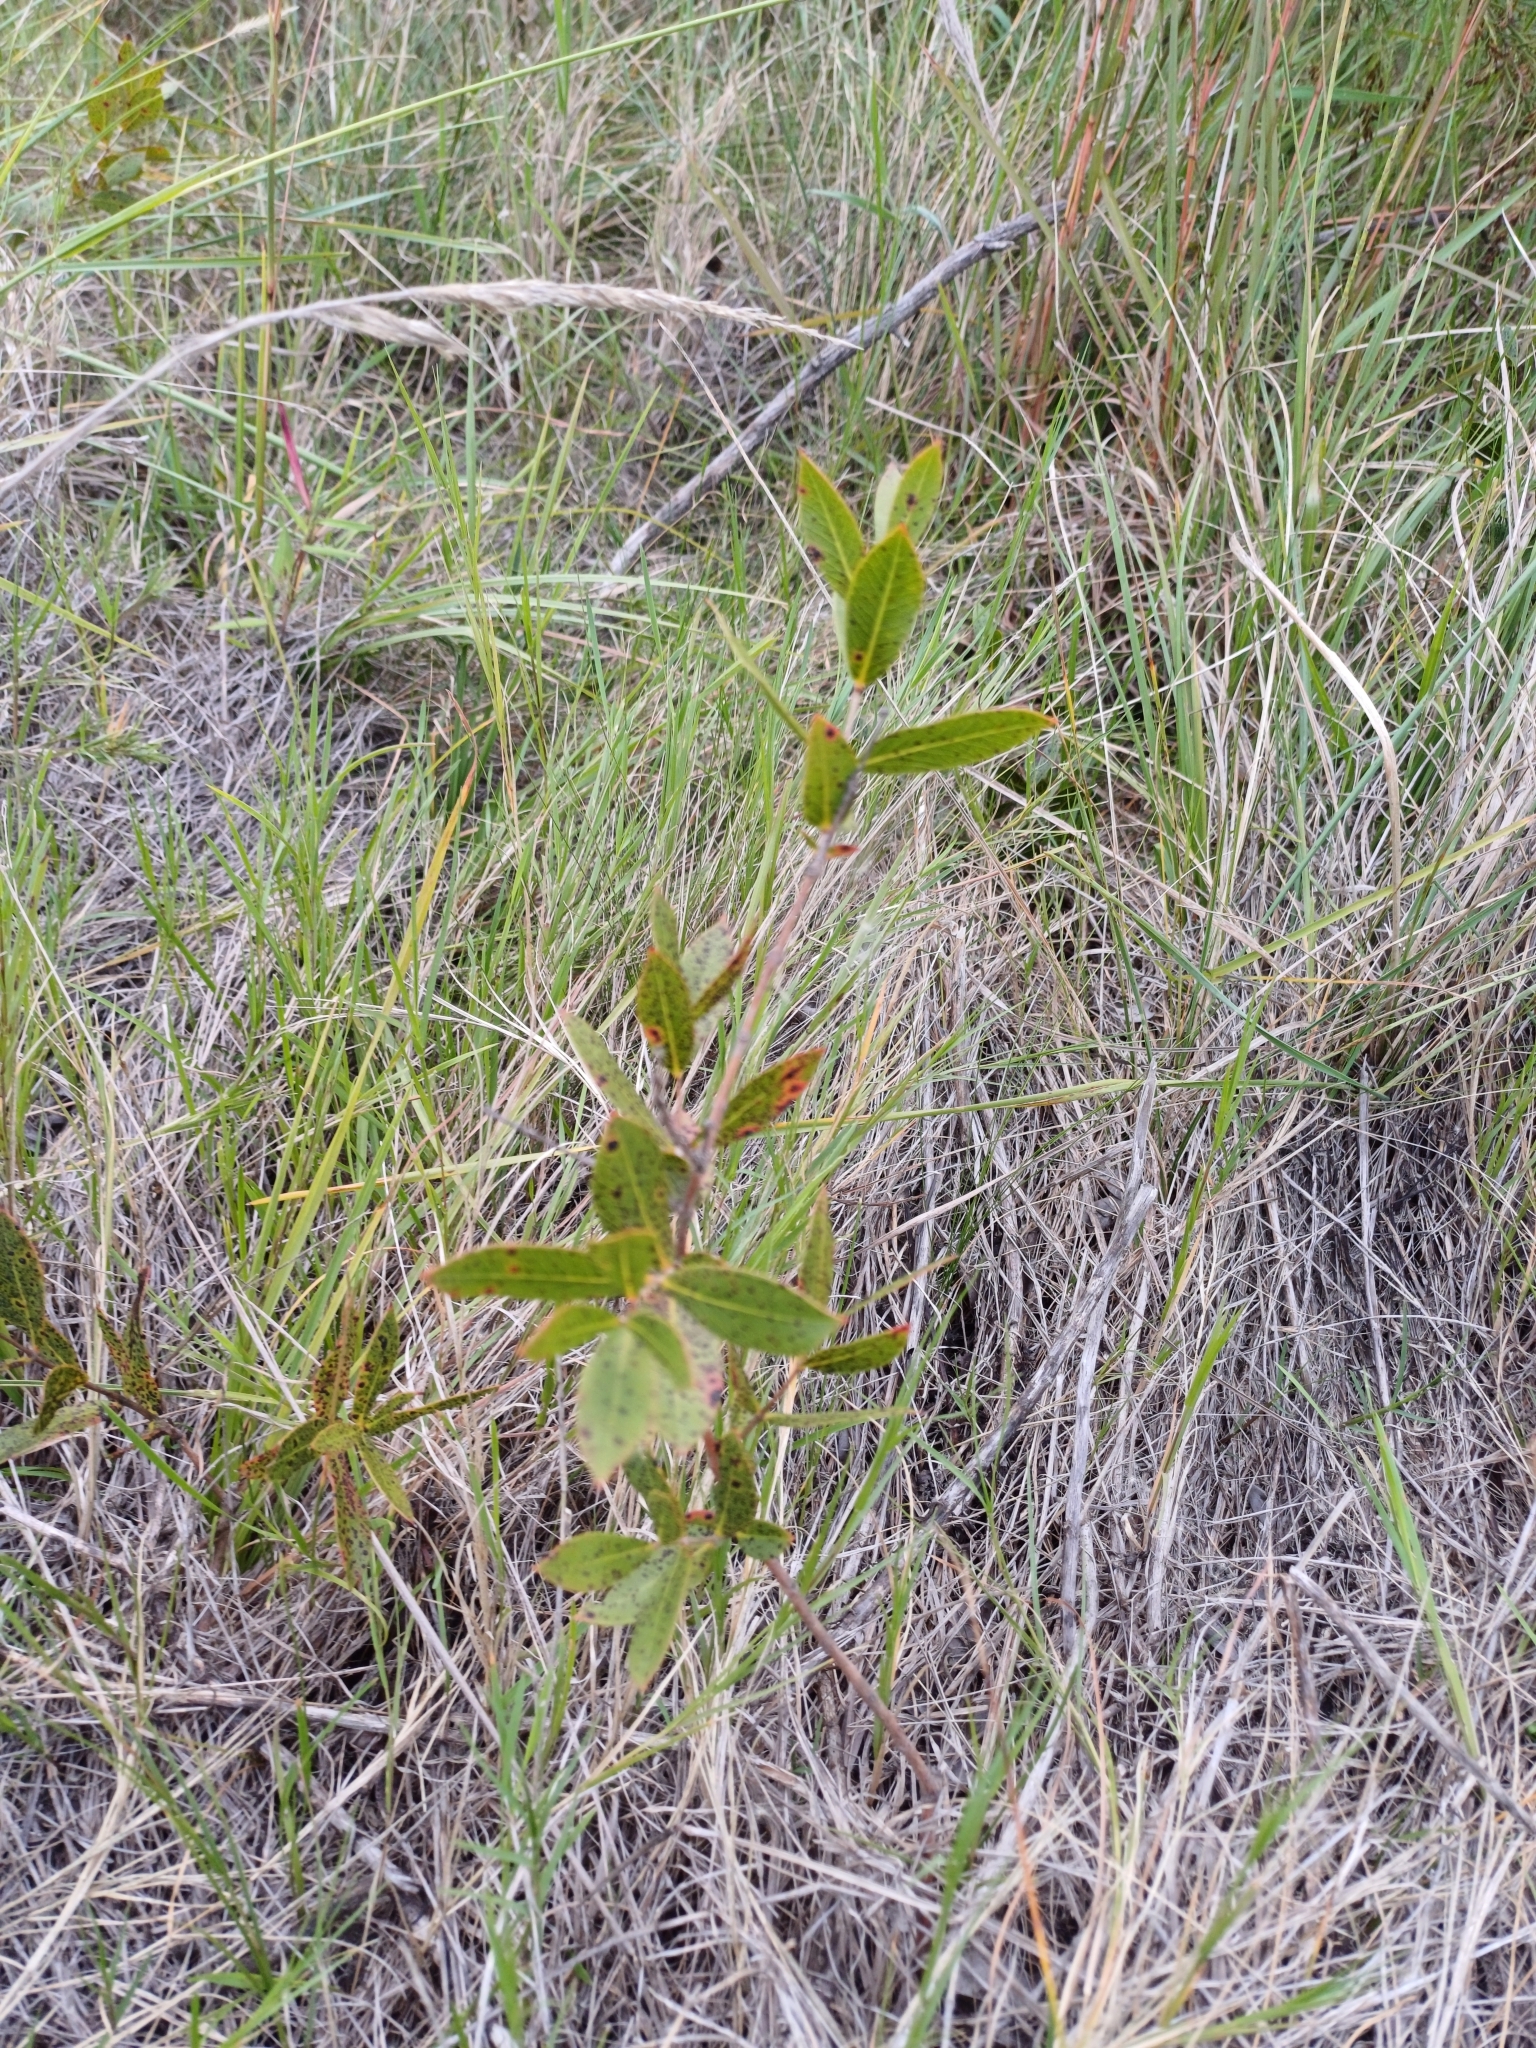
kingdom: Plantae
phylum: Tracheophyta
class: Magnoliopsida
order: Myrtales
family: Myrtaceae
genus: Psidium
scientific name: Psidium salutare
